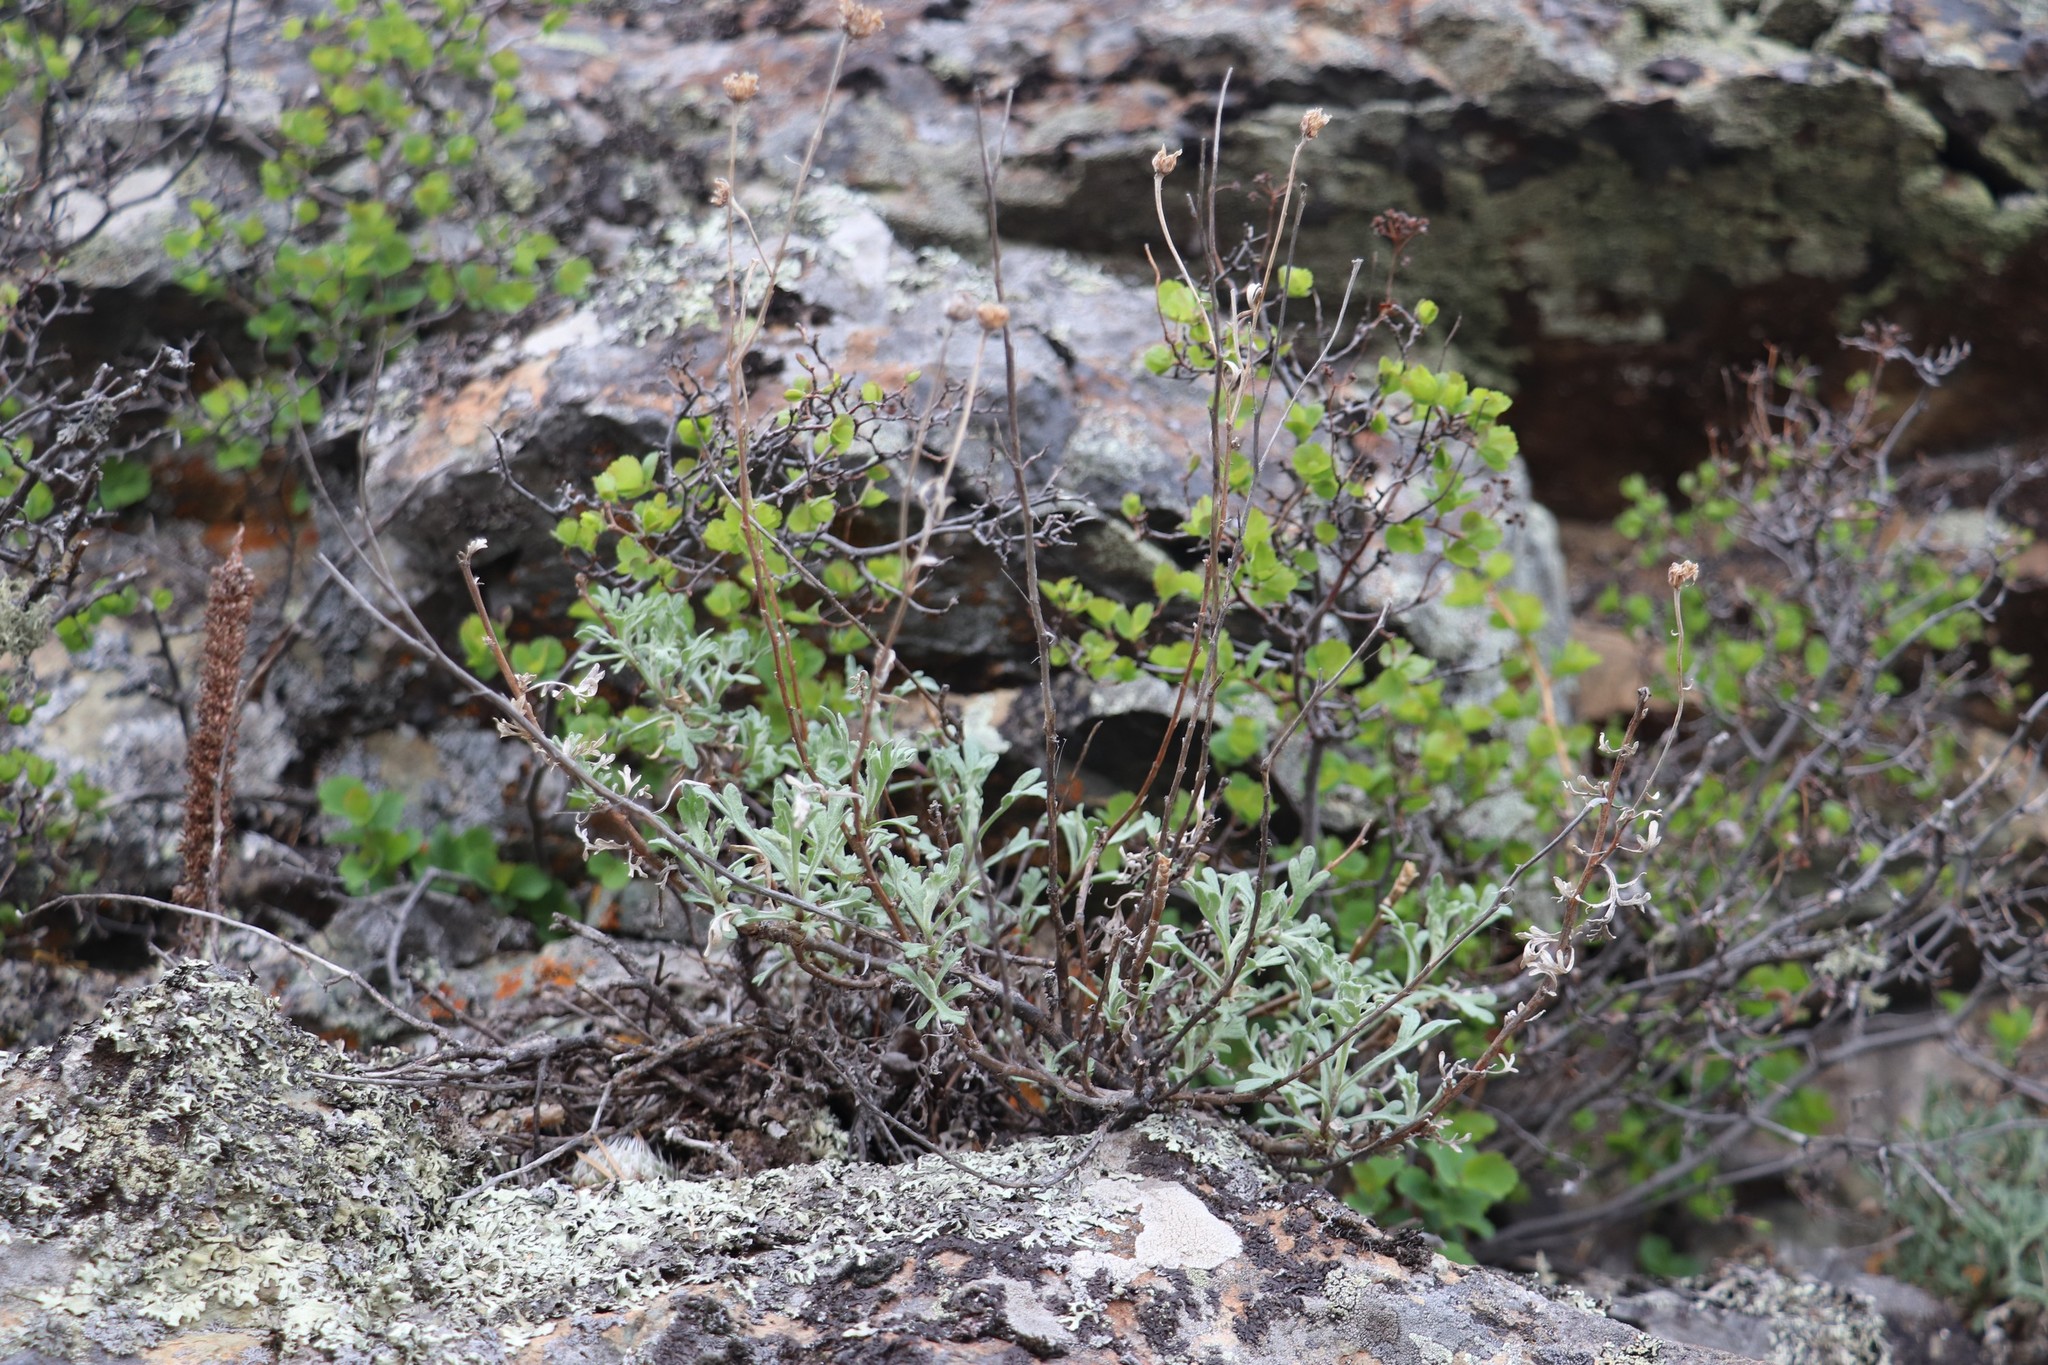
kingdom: Plantae
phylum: Tracheophyta
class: Magnoliopsida
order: Rosales
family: Rosaceae
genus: Spiraea
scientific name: Spiraea trilobata
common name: Asian meadowsweet
